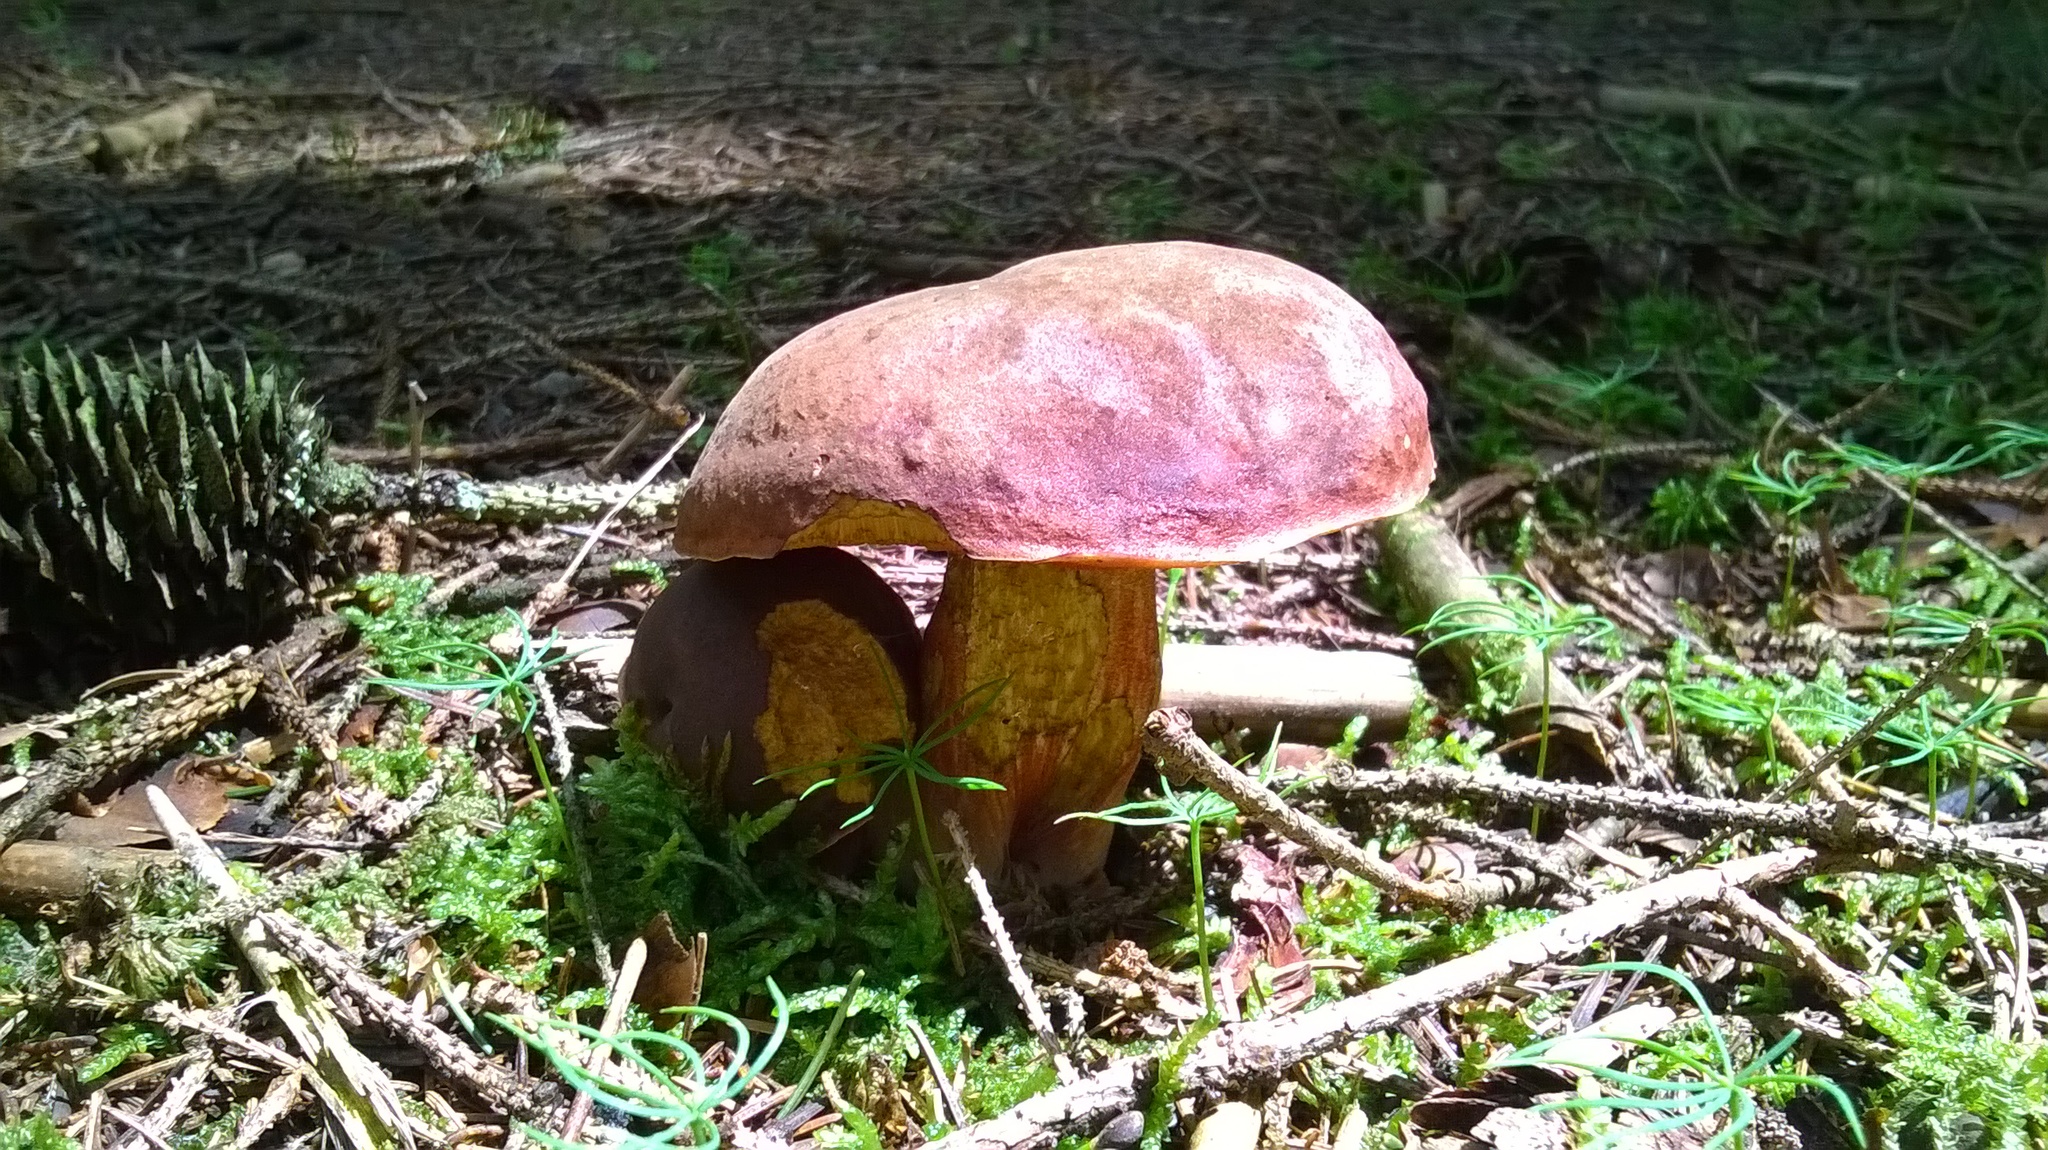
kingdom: Fungi
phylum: Basidiomycota
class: Agaricomycetes
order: Boletales
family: Boletaceae
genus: Suillellus
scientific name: Suillellus queletii
